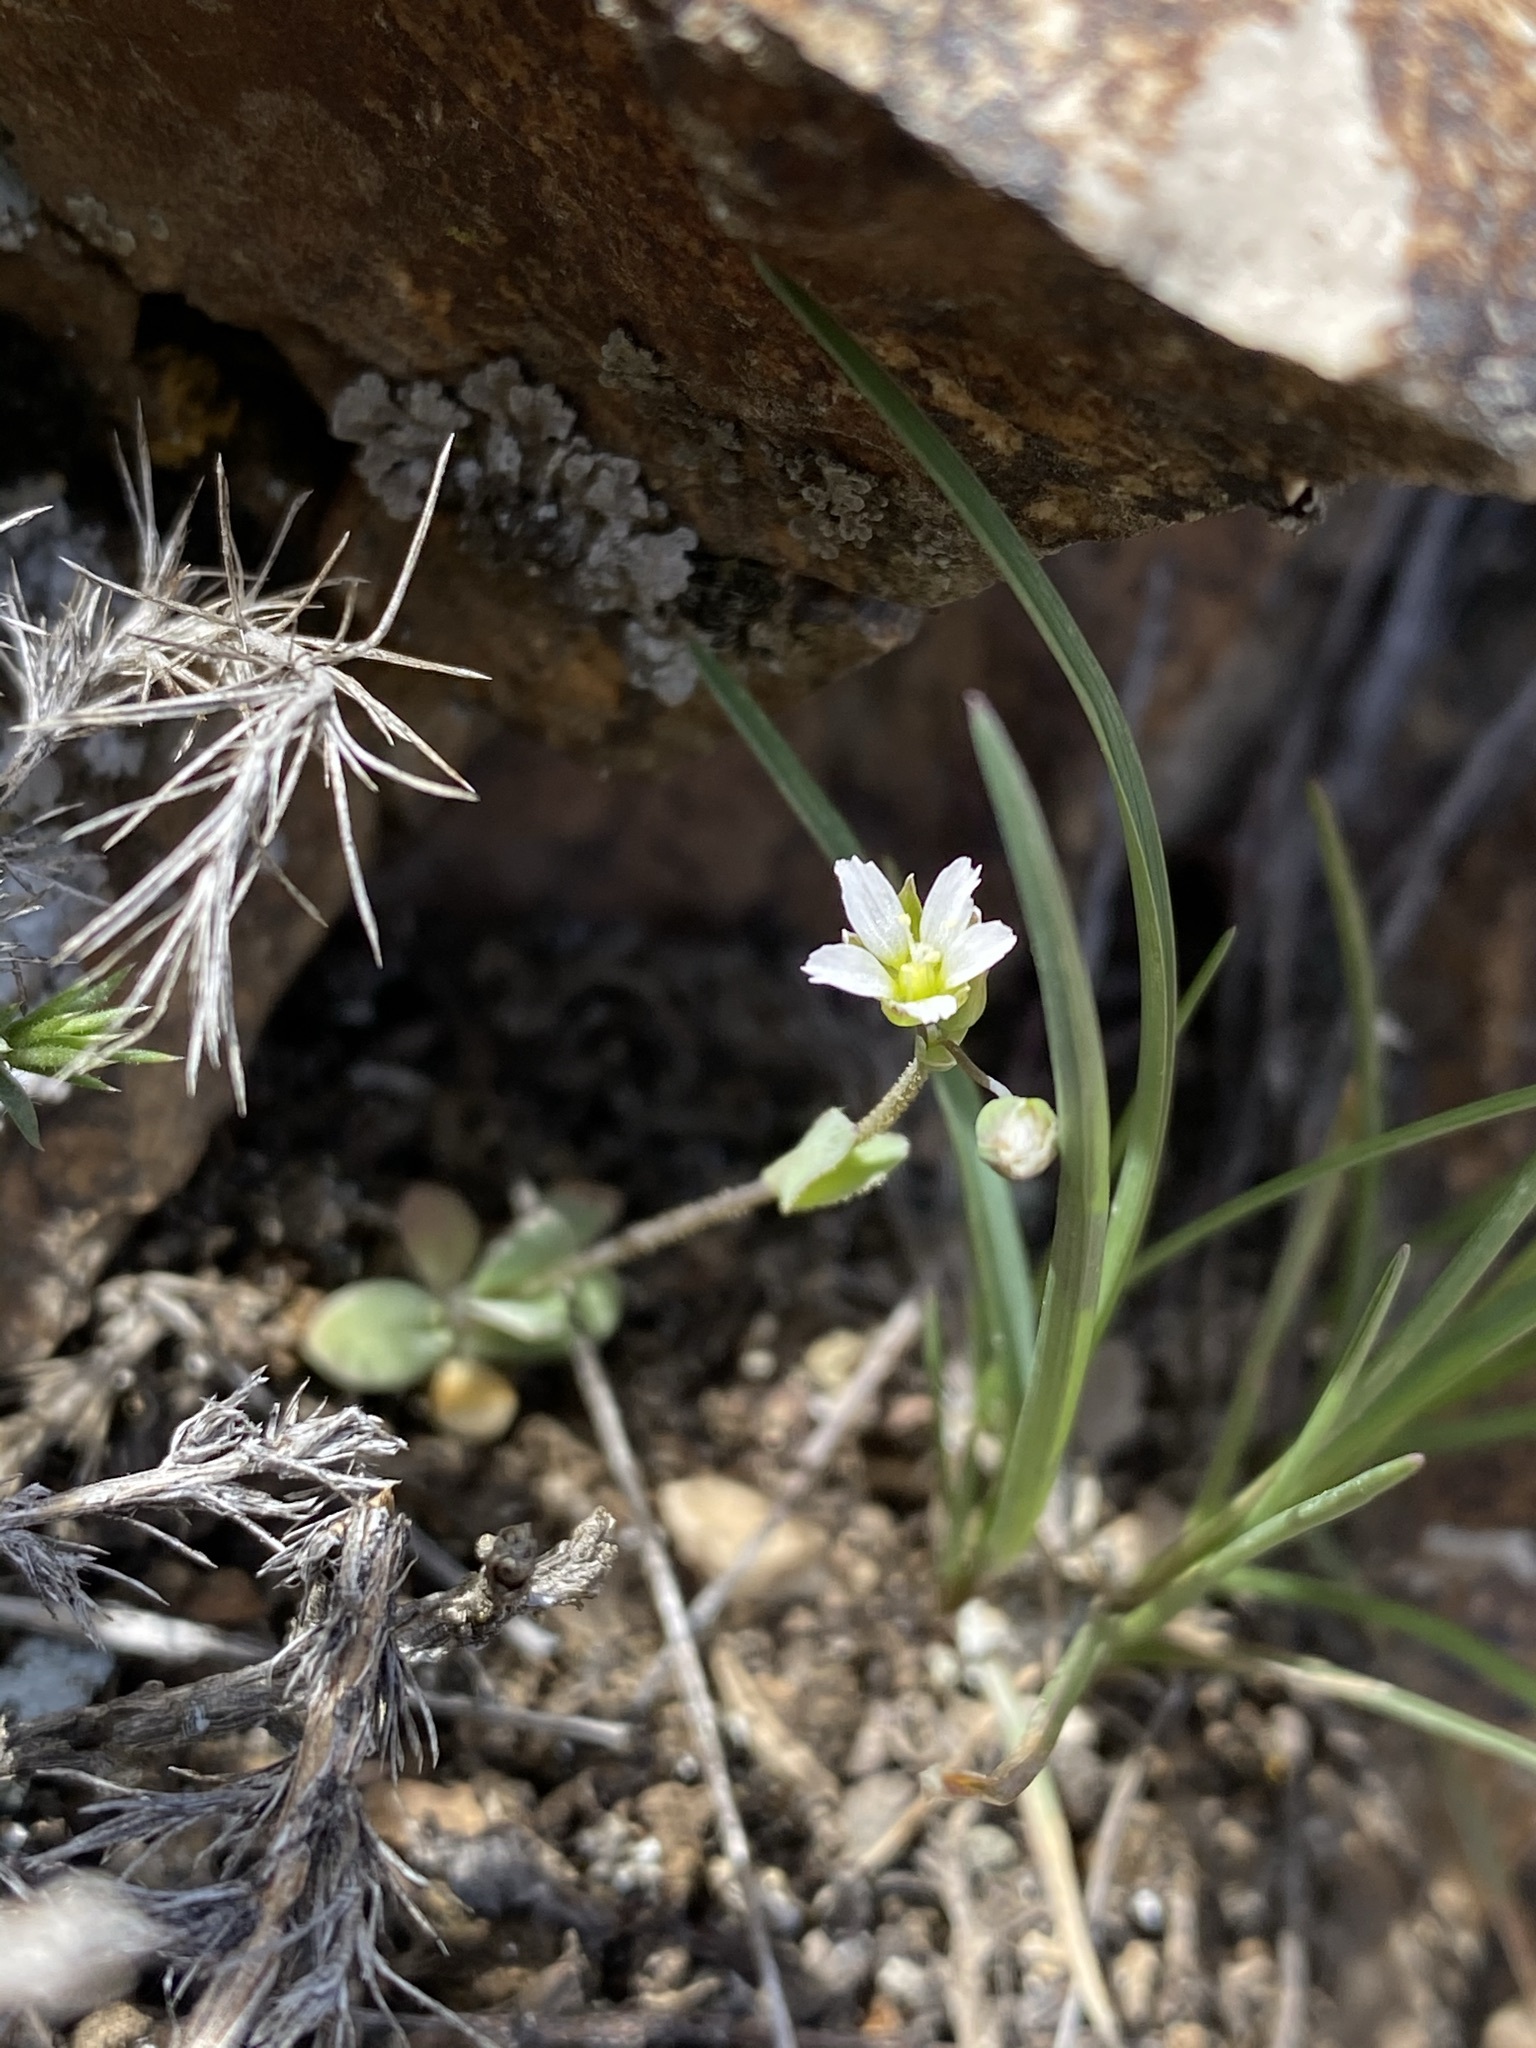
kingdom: Plantae
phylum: Tracheophyta
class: Magnoliopsida
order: Caryophyllales
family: Caryophyllaceae
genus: Holosteum
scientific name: Holosteum umbellatum
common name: Jagged chickweed
